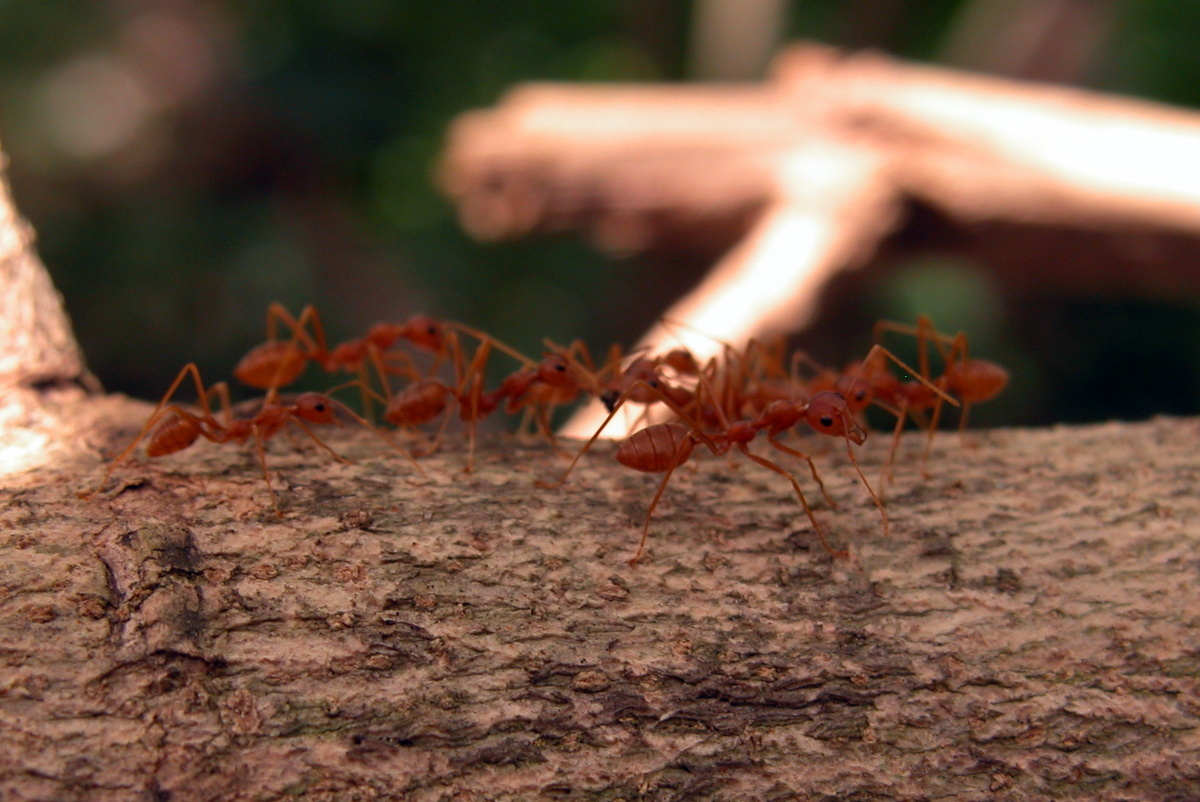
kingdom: Animalia
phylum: Arthropoda
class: Insecta
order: Hymenoptera
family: Formicidae
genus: Oecophylla
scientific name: Oecophylla smaragdina
